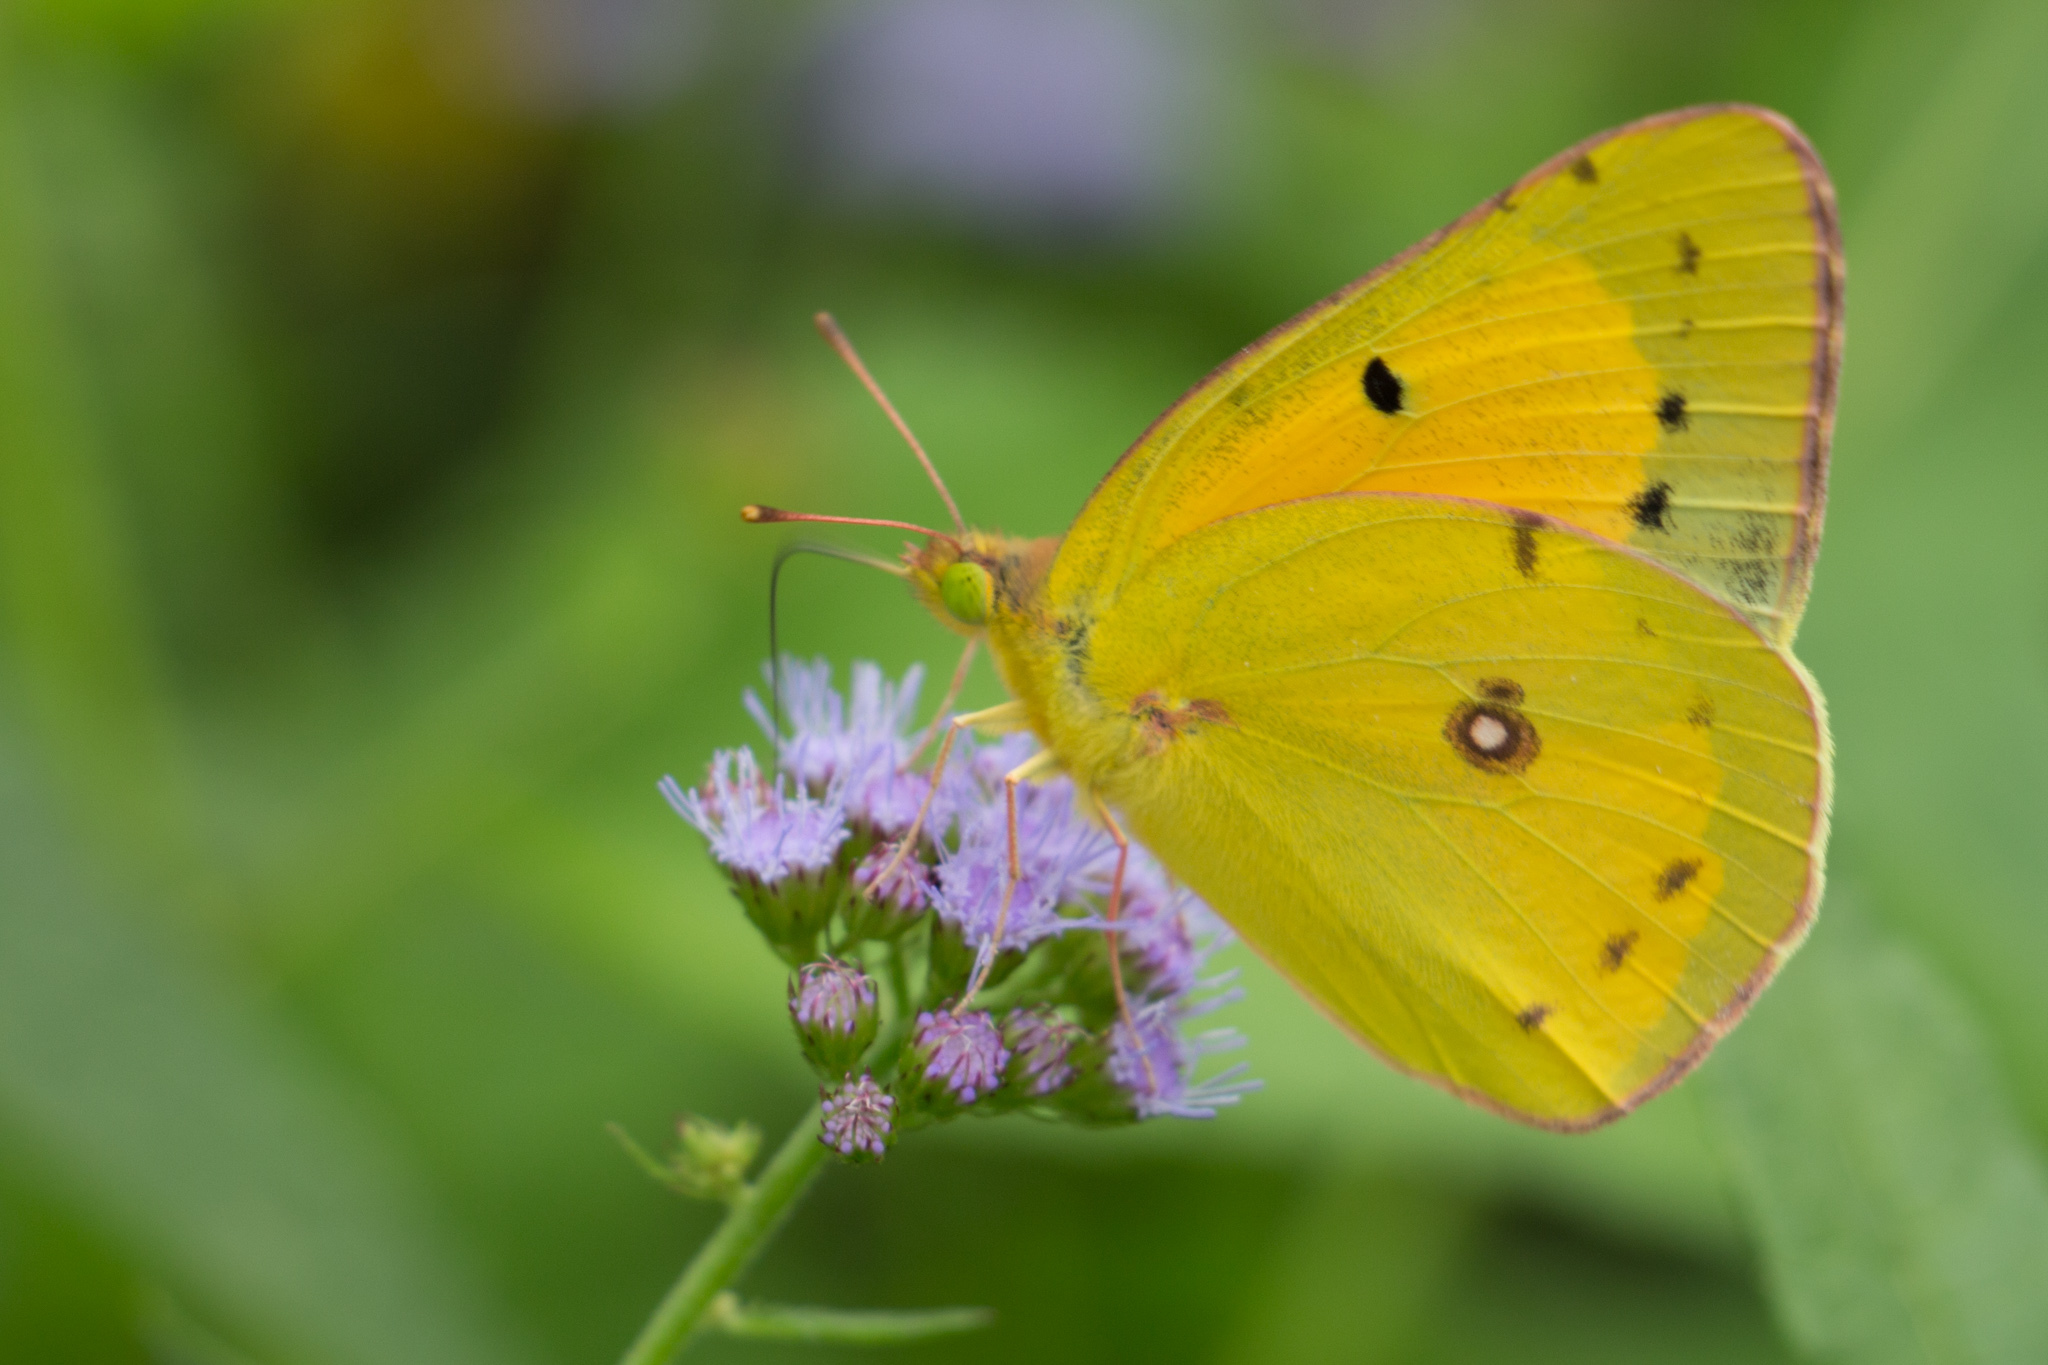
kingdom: Animalia
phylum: Arthropoda
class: Insecta
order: Lepidoptera
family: Pieridae
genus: Colias
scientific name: Colias eurytheme
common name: Alfalfa butterfly
